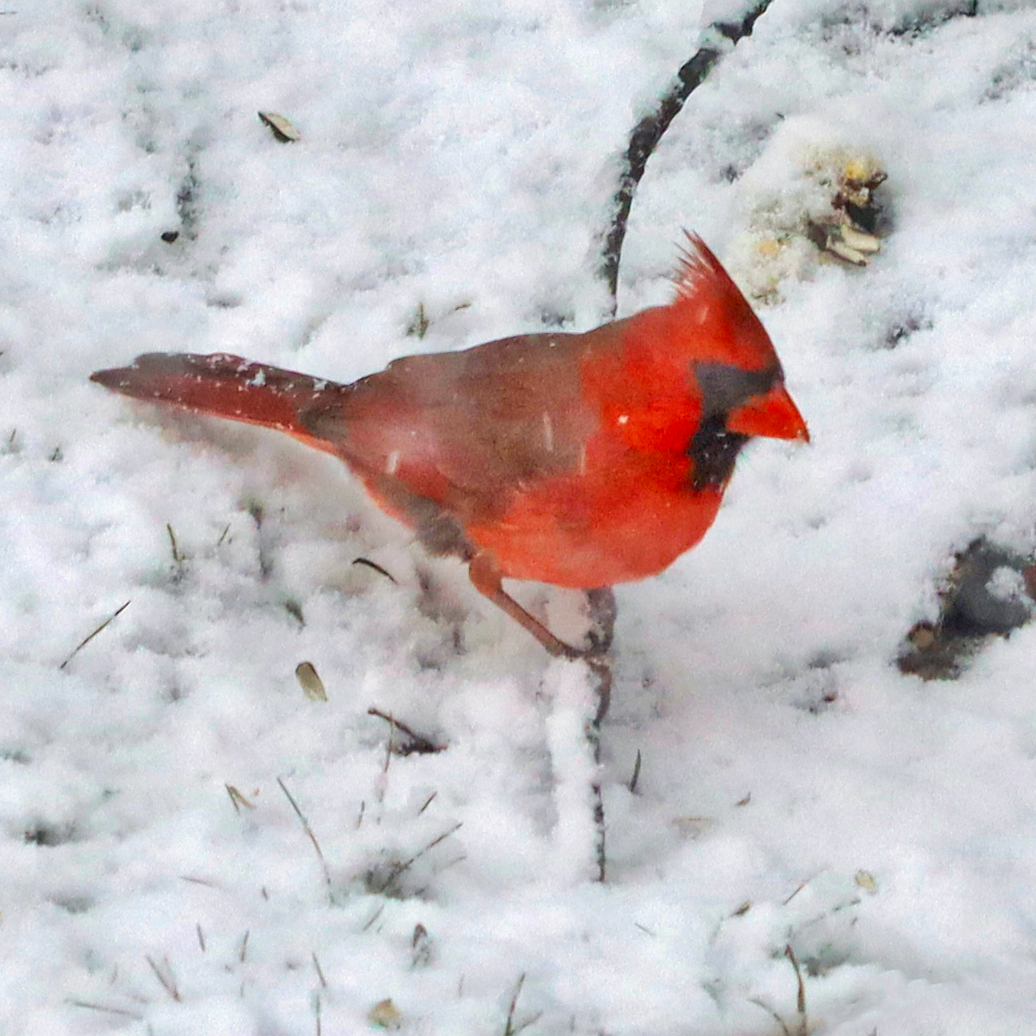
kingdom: Animalia
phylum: Chordata
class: Aves
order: Passeriformes
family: Cardinalidae
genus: Cardinalis
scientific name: Cardinalis cardinalis
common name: Northern cardinal
